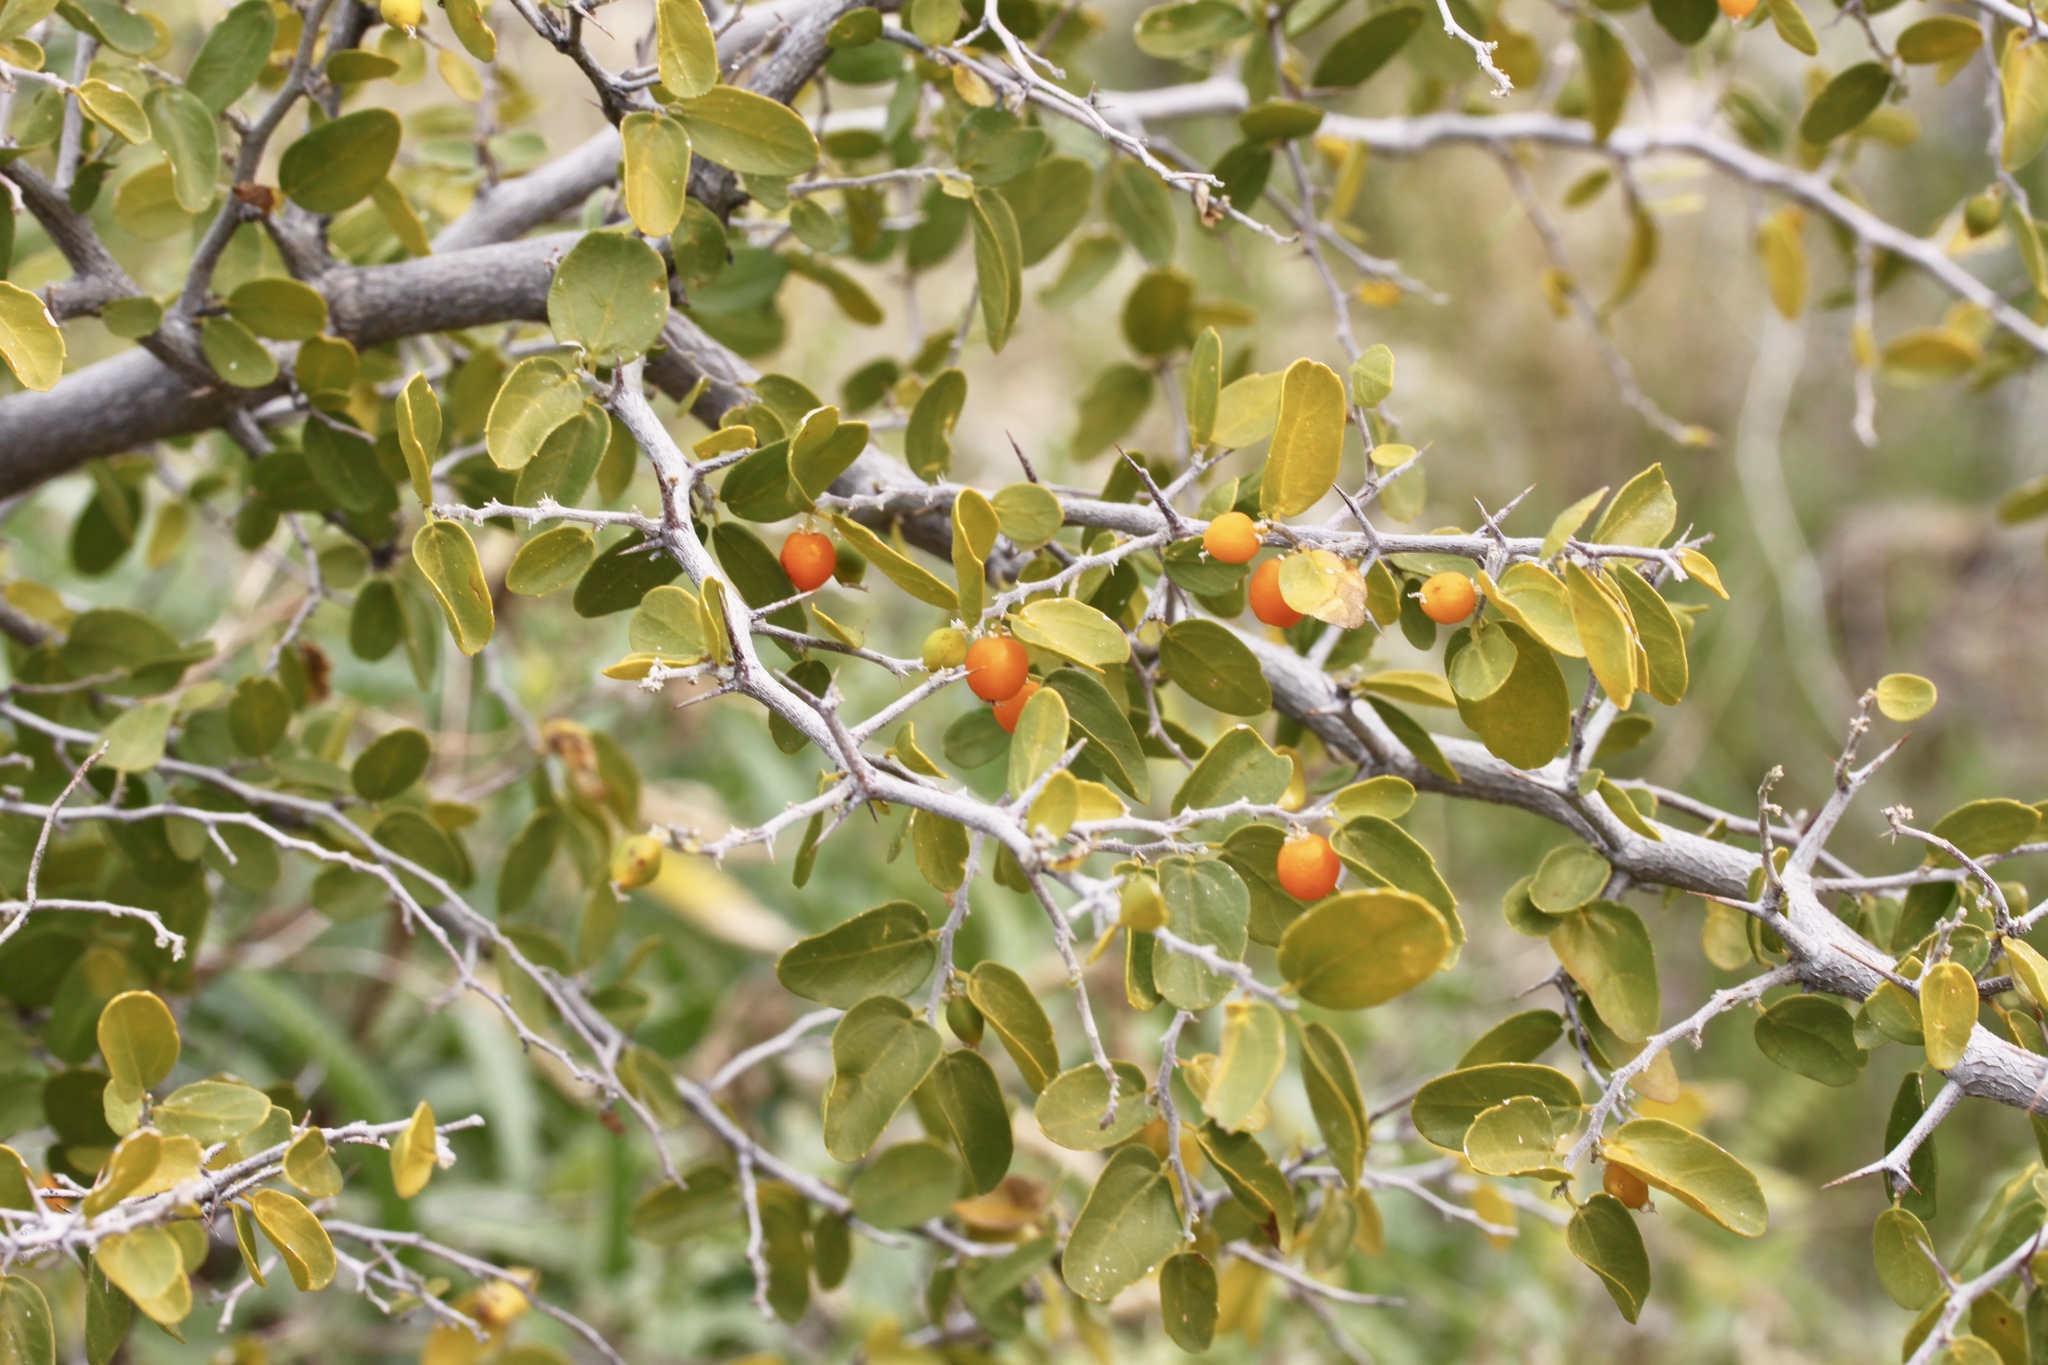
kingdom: Plantae
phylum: Tracheophyta
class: Magnoliopsida
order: Rosales
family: Cannabaceae
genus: Celtis
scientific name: Celtis pallida
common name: Desert hackberry
